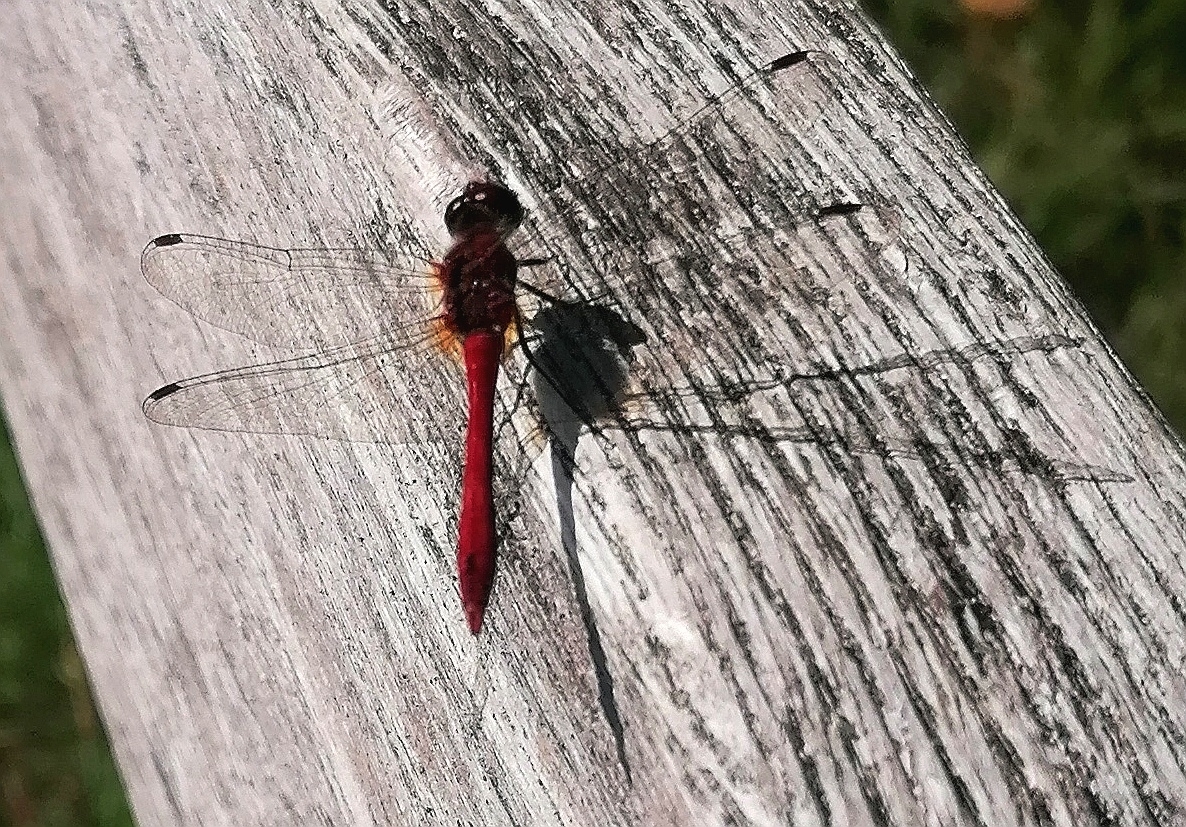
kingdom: Animalia
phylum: Arthropoda
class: Insecta
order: Odonata
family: Libellulidae
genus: Sympetrum
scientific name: Sympetrum sanguineum
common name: Ruddy darter
